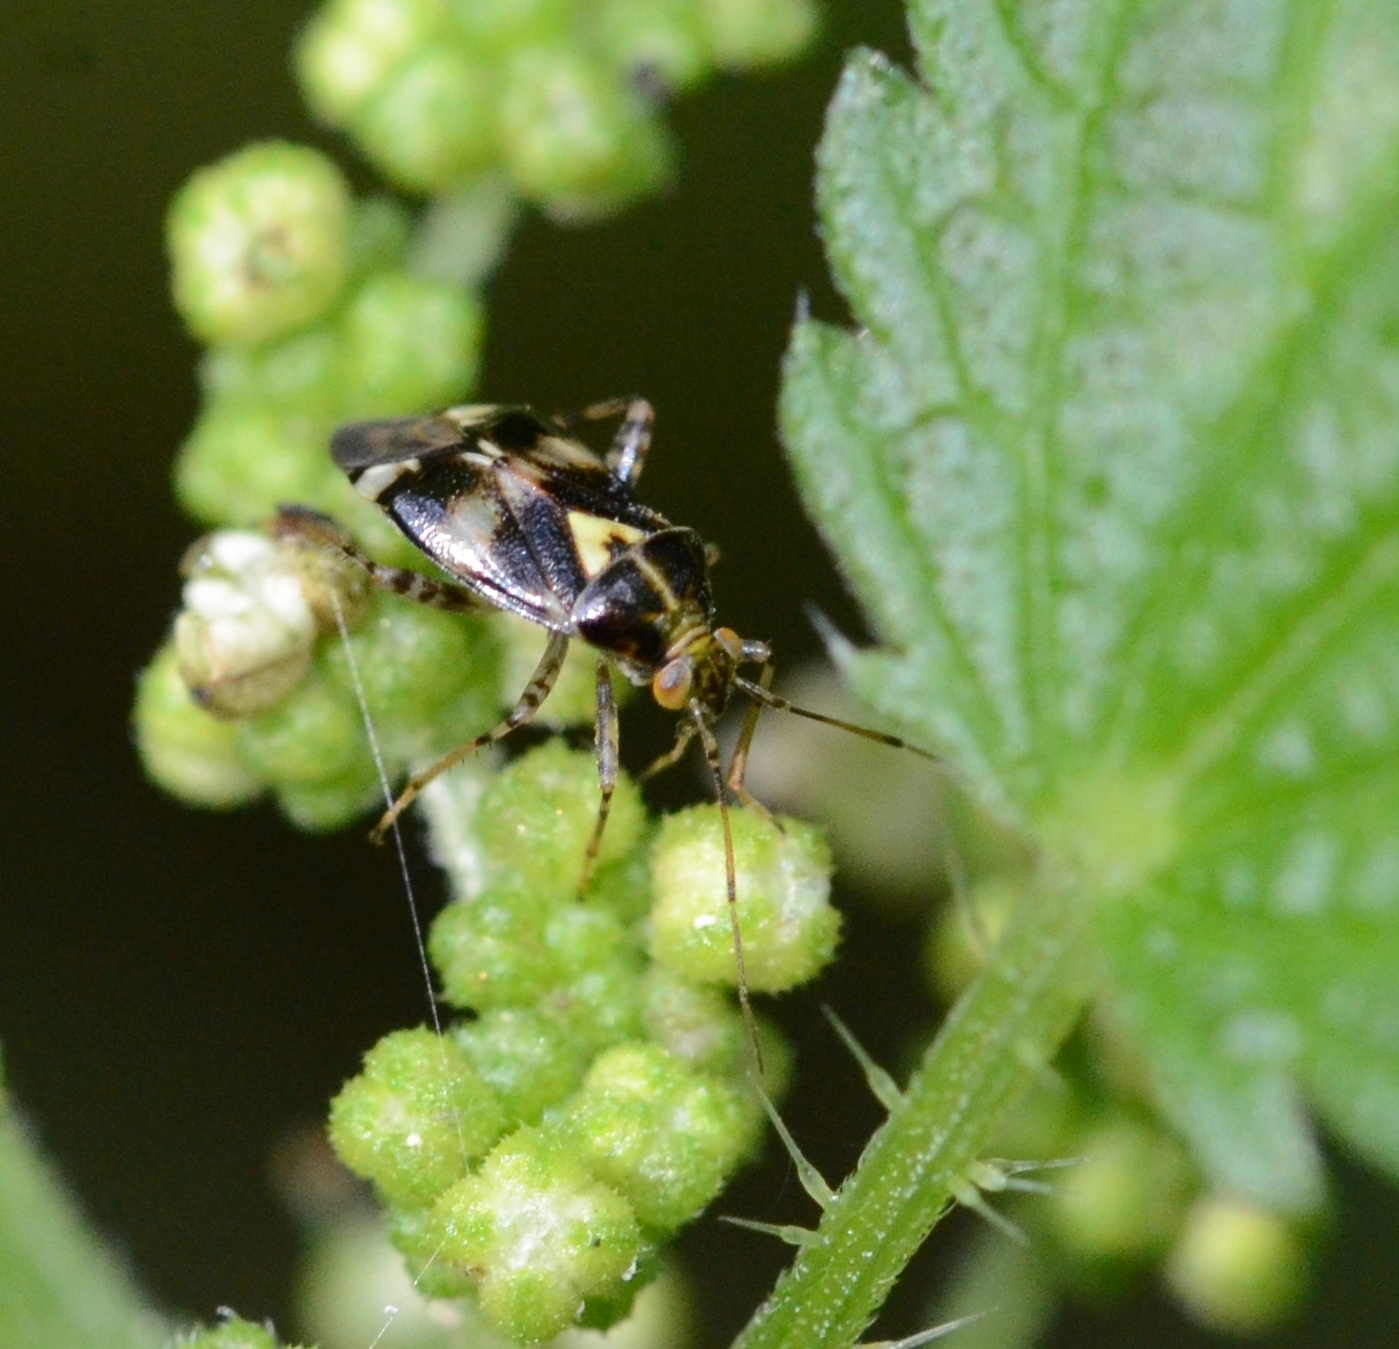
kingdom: Animalia
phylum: Arthropoda
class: Insecta
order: Hemiptera
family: Miridae
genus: Liocoris
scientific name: Liocoris tripustulatus
